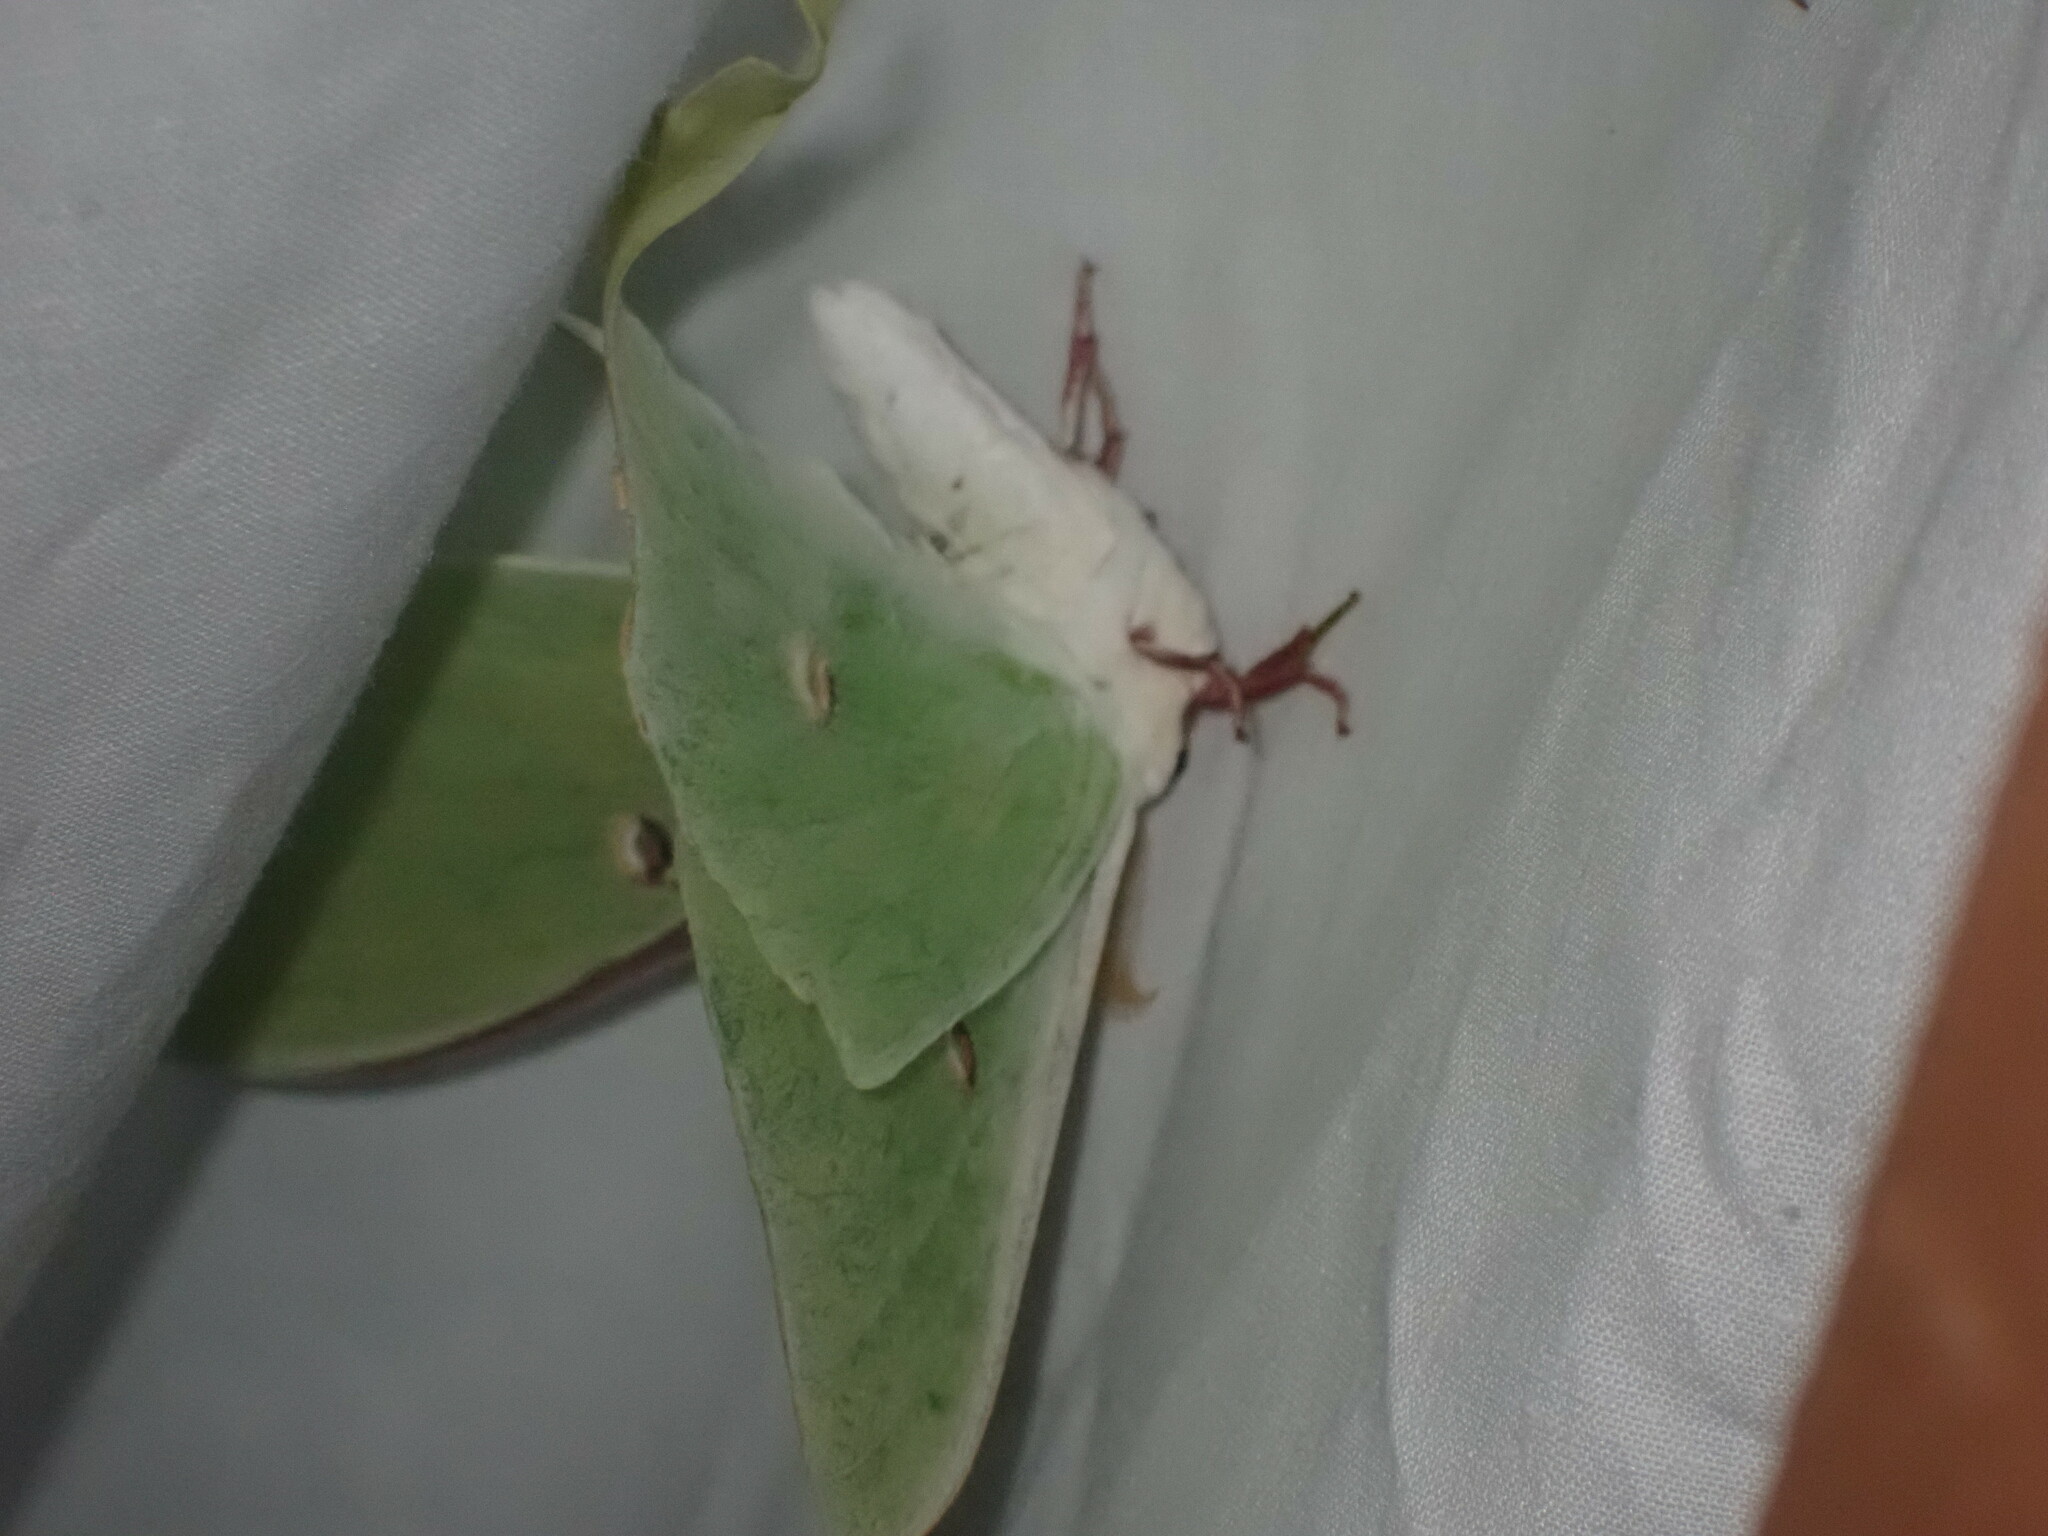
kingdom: Animalia
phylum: Arthropoda
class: Insecta
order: Lepidoptera
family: Saturniidae
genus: Actias
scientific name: Actias luna
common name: Luna moth
